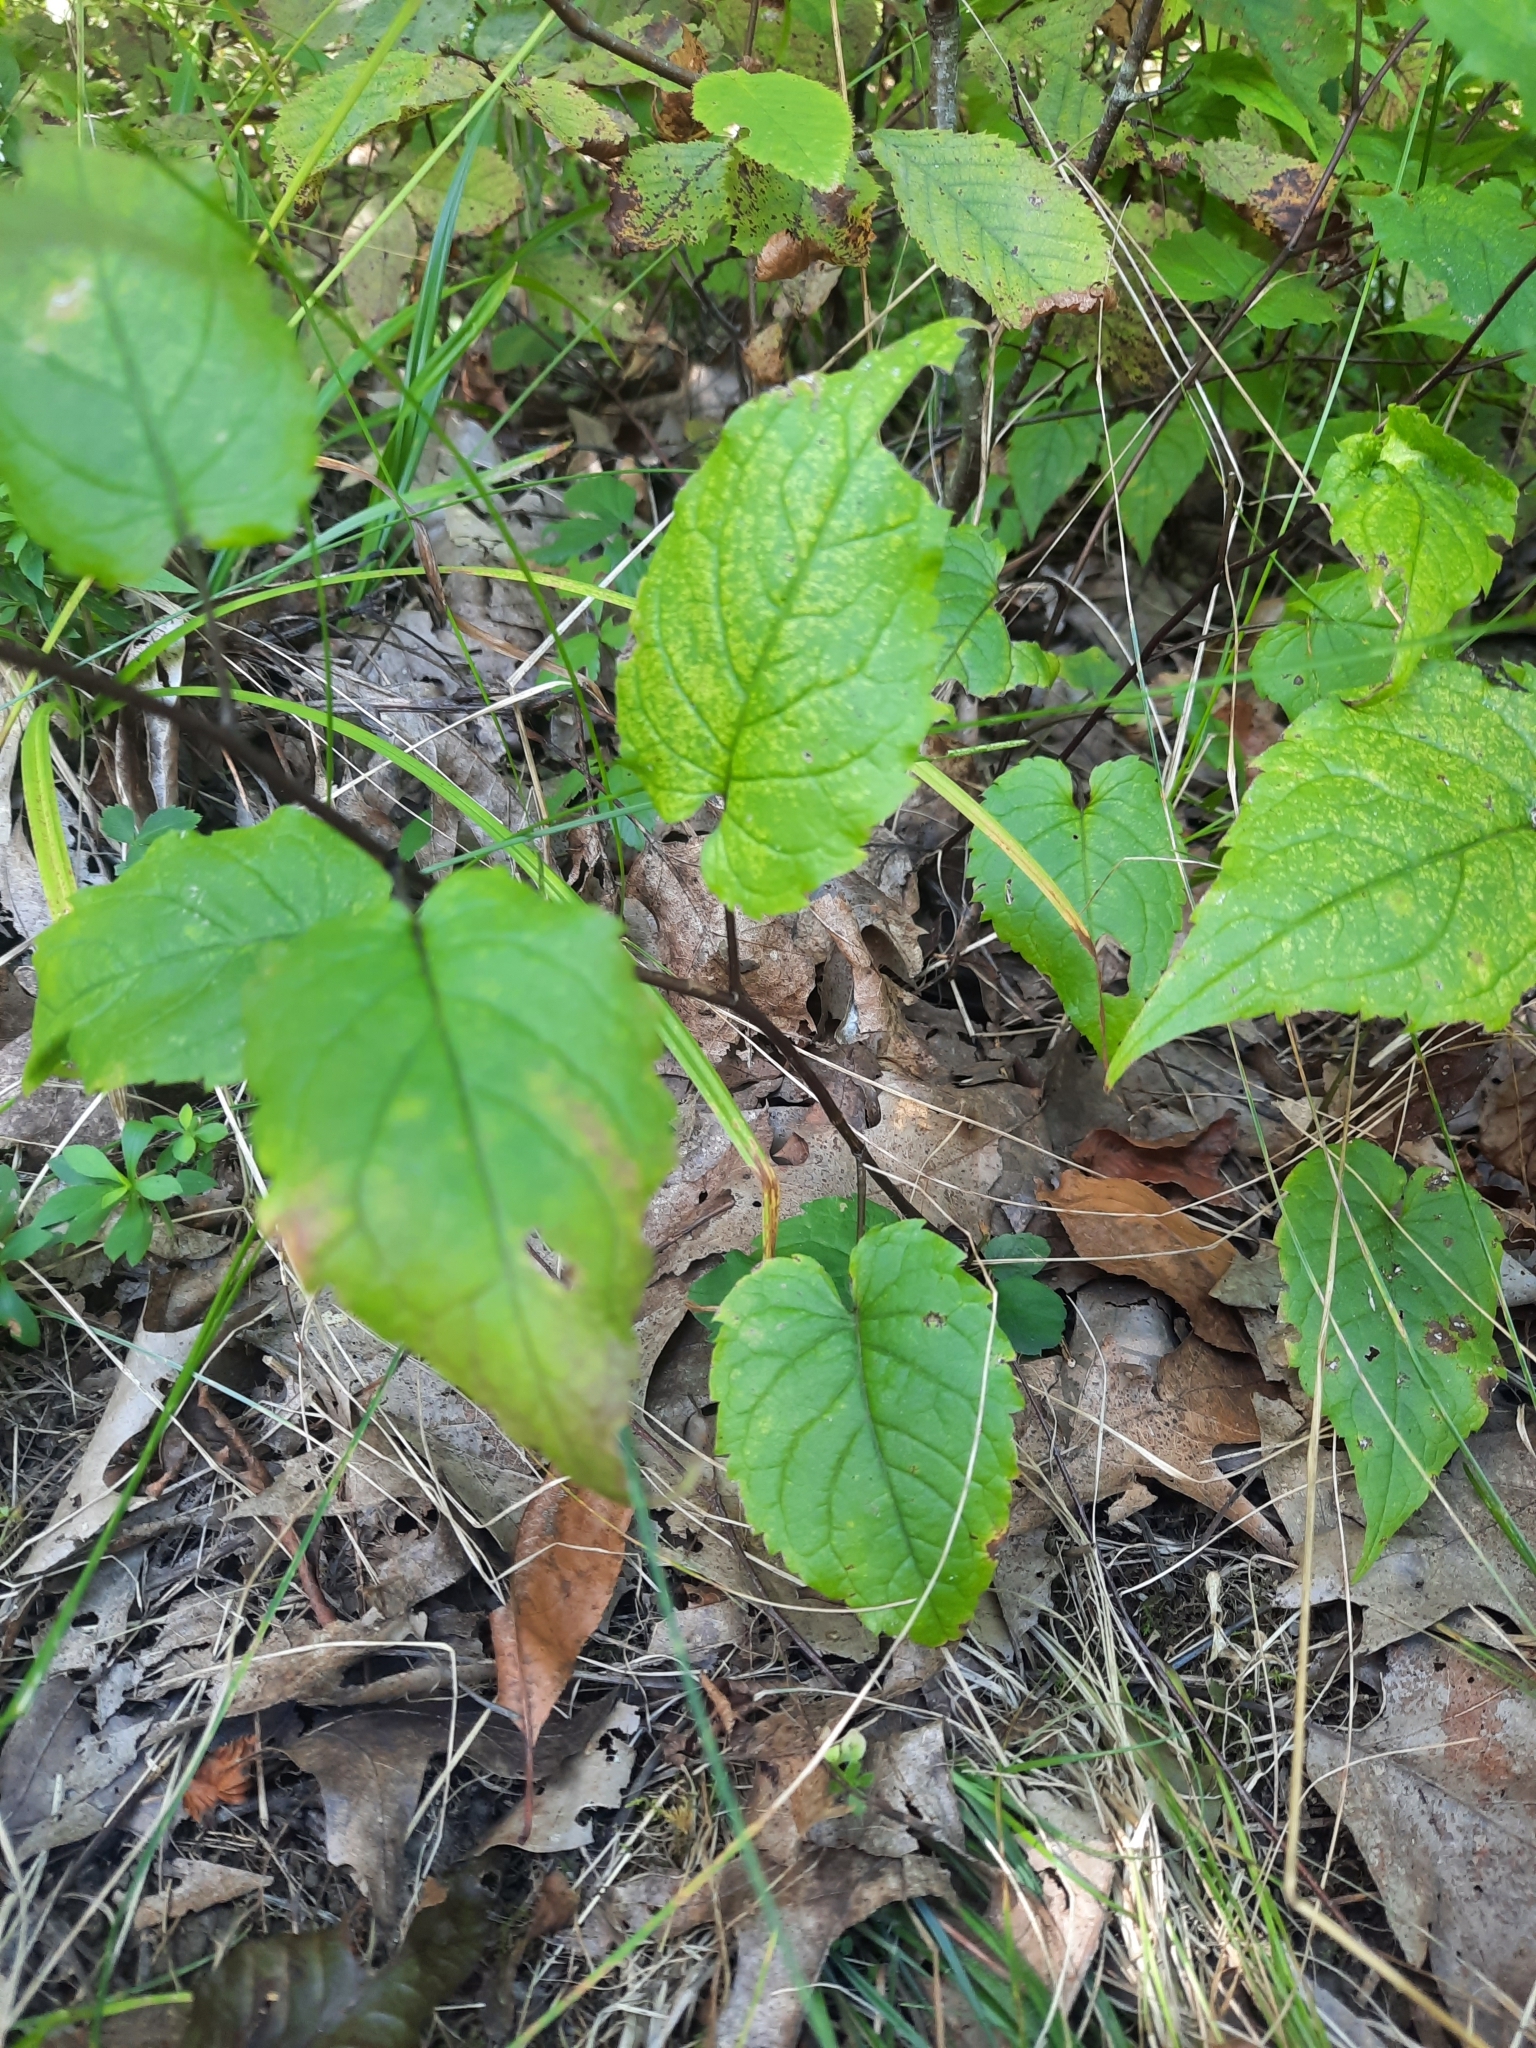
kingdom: Plantae
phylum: Tracheophyta
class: Magnoliopsida
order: Asterales
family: Asteraceae
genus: Eurybia
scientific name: Eurybia divaricata
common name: White wood aster
